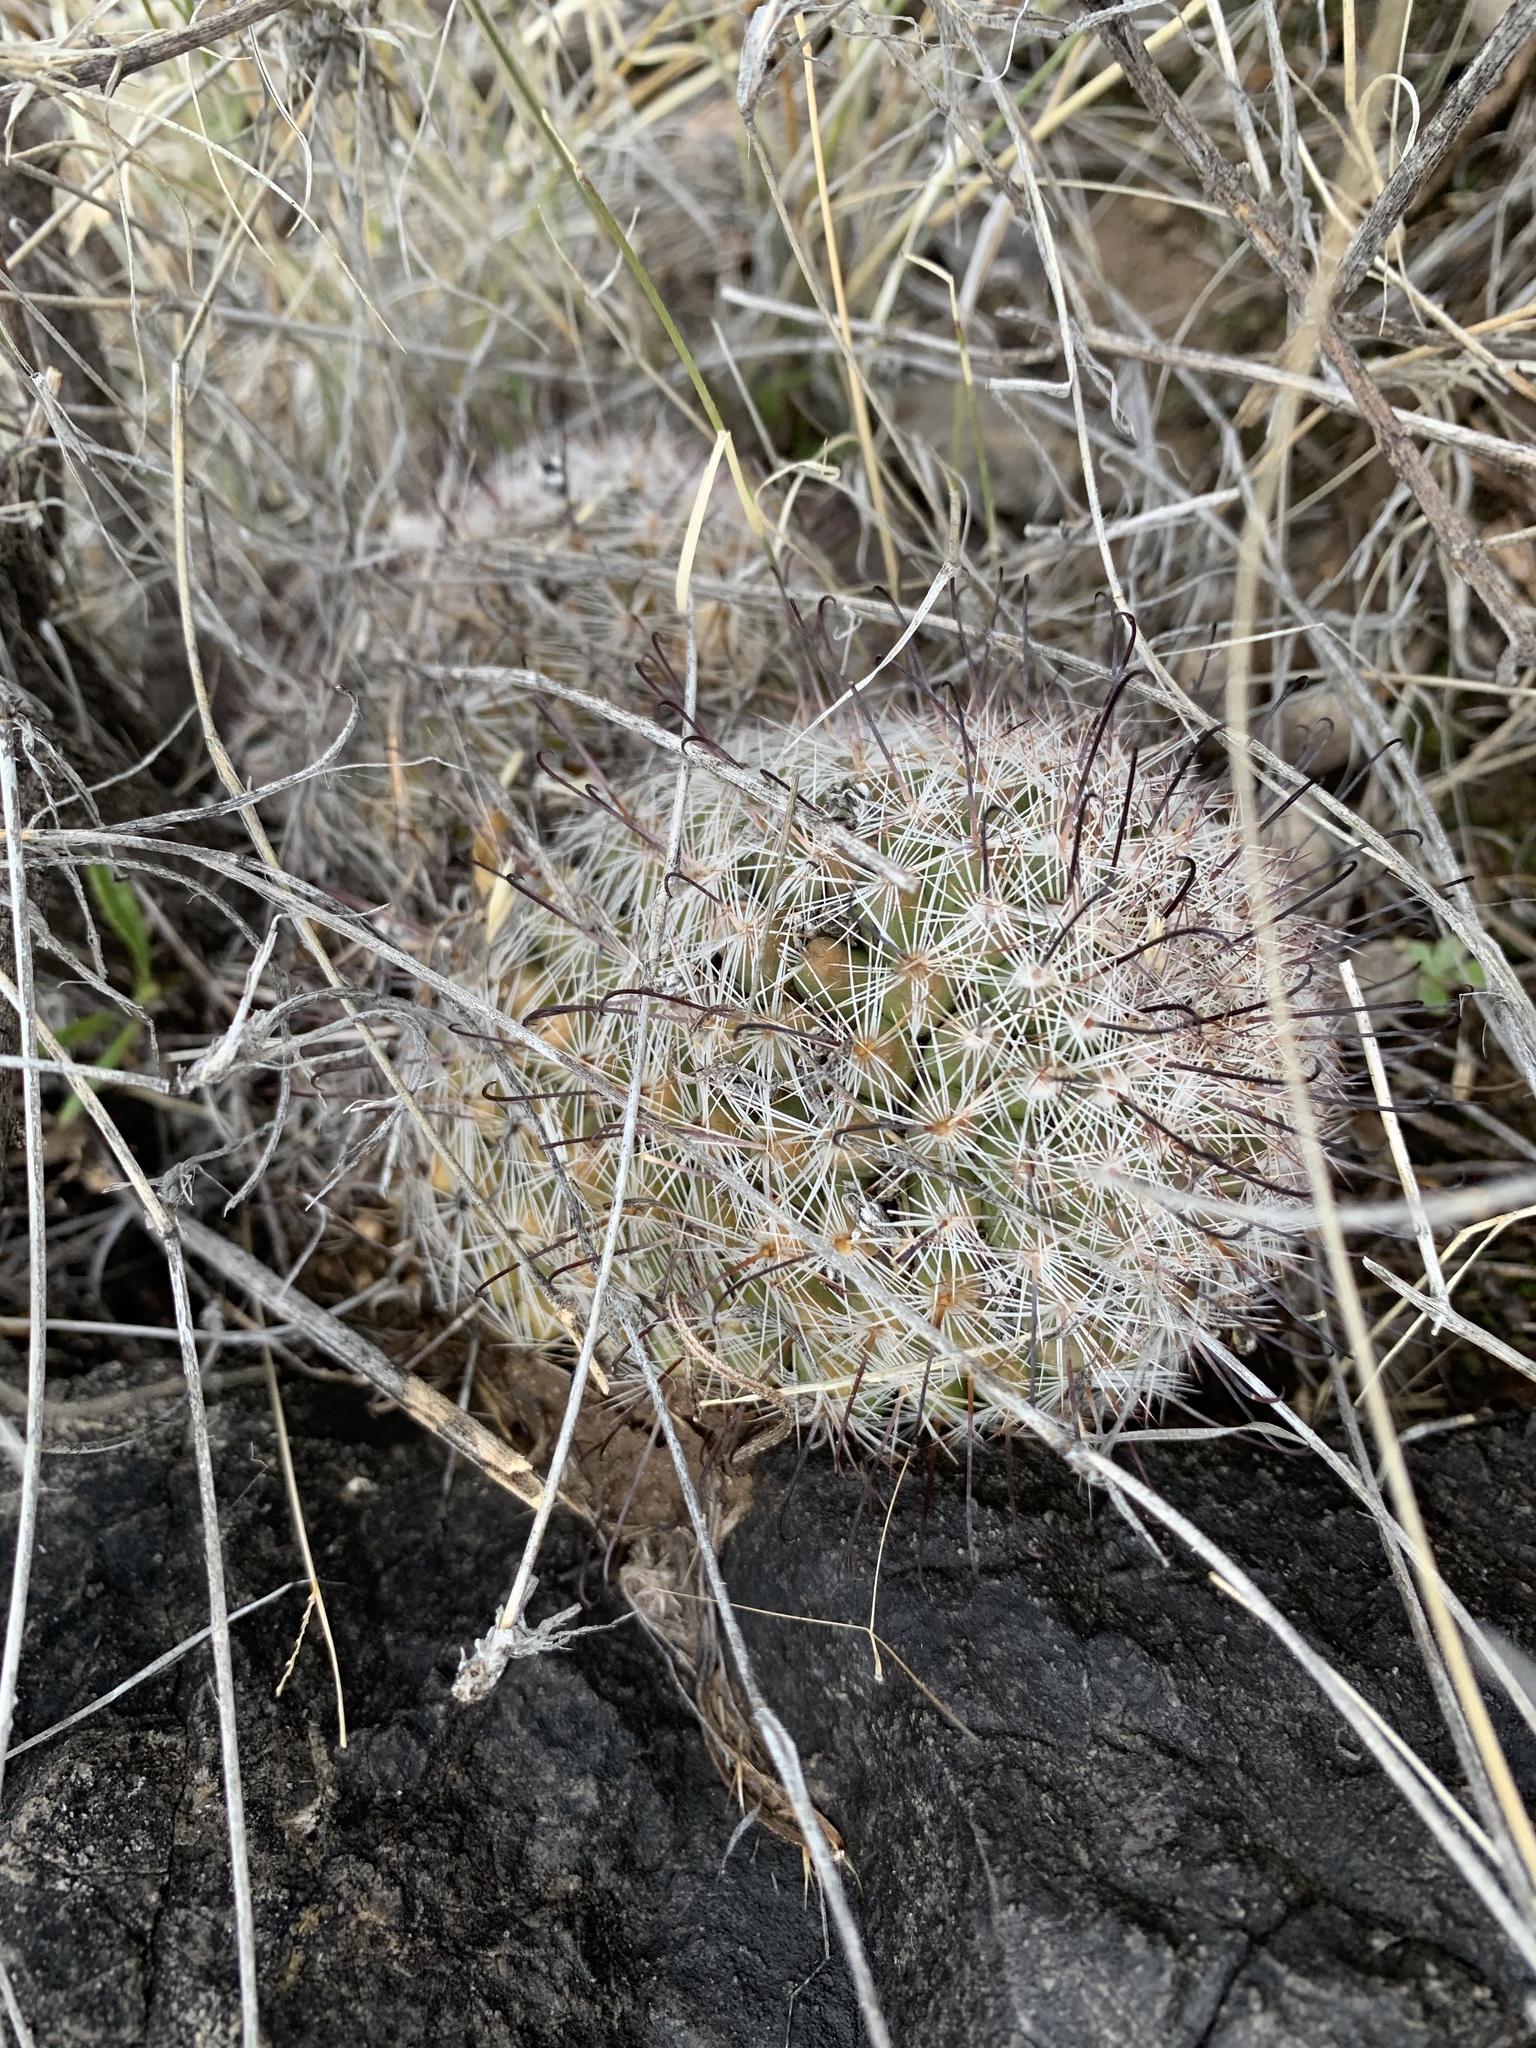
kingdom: Plantae
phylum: Tracheophyta
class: Magnoliopsida
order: Caryophyllales
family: Cactaceae
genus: Cochemiea
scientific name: Cochemiea grahamii
